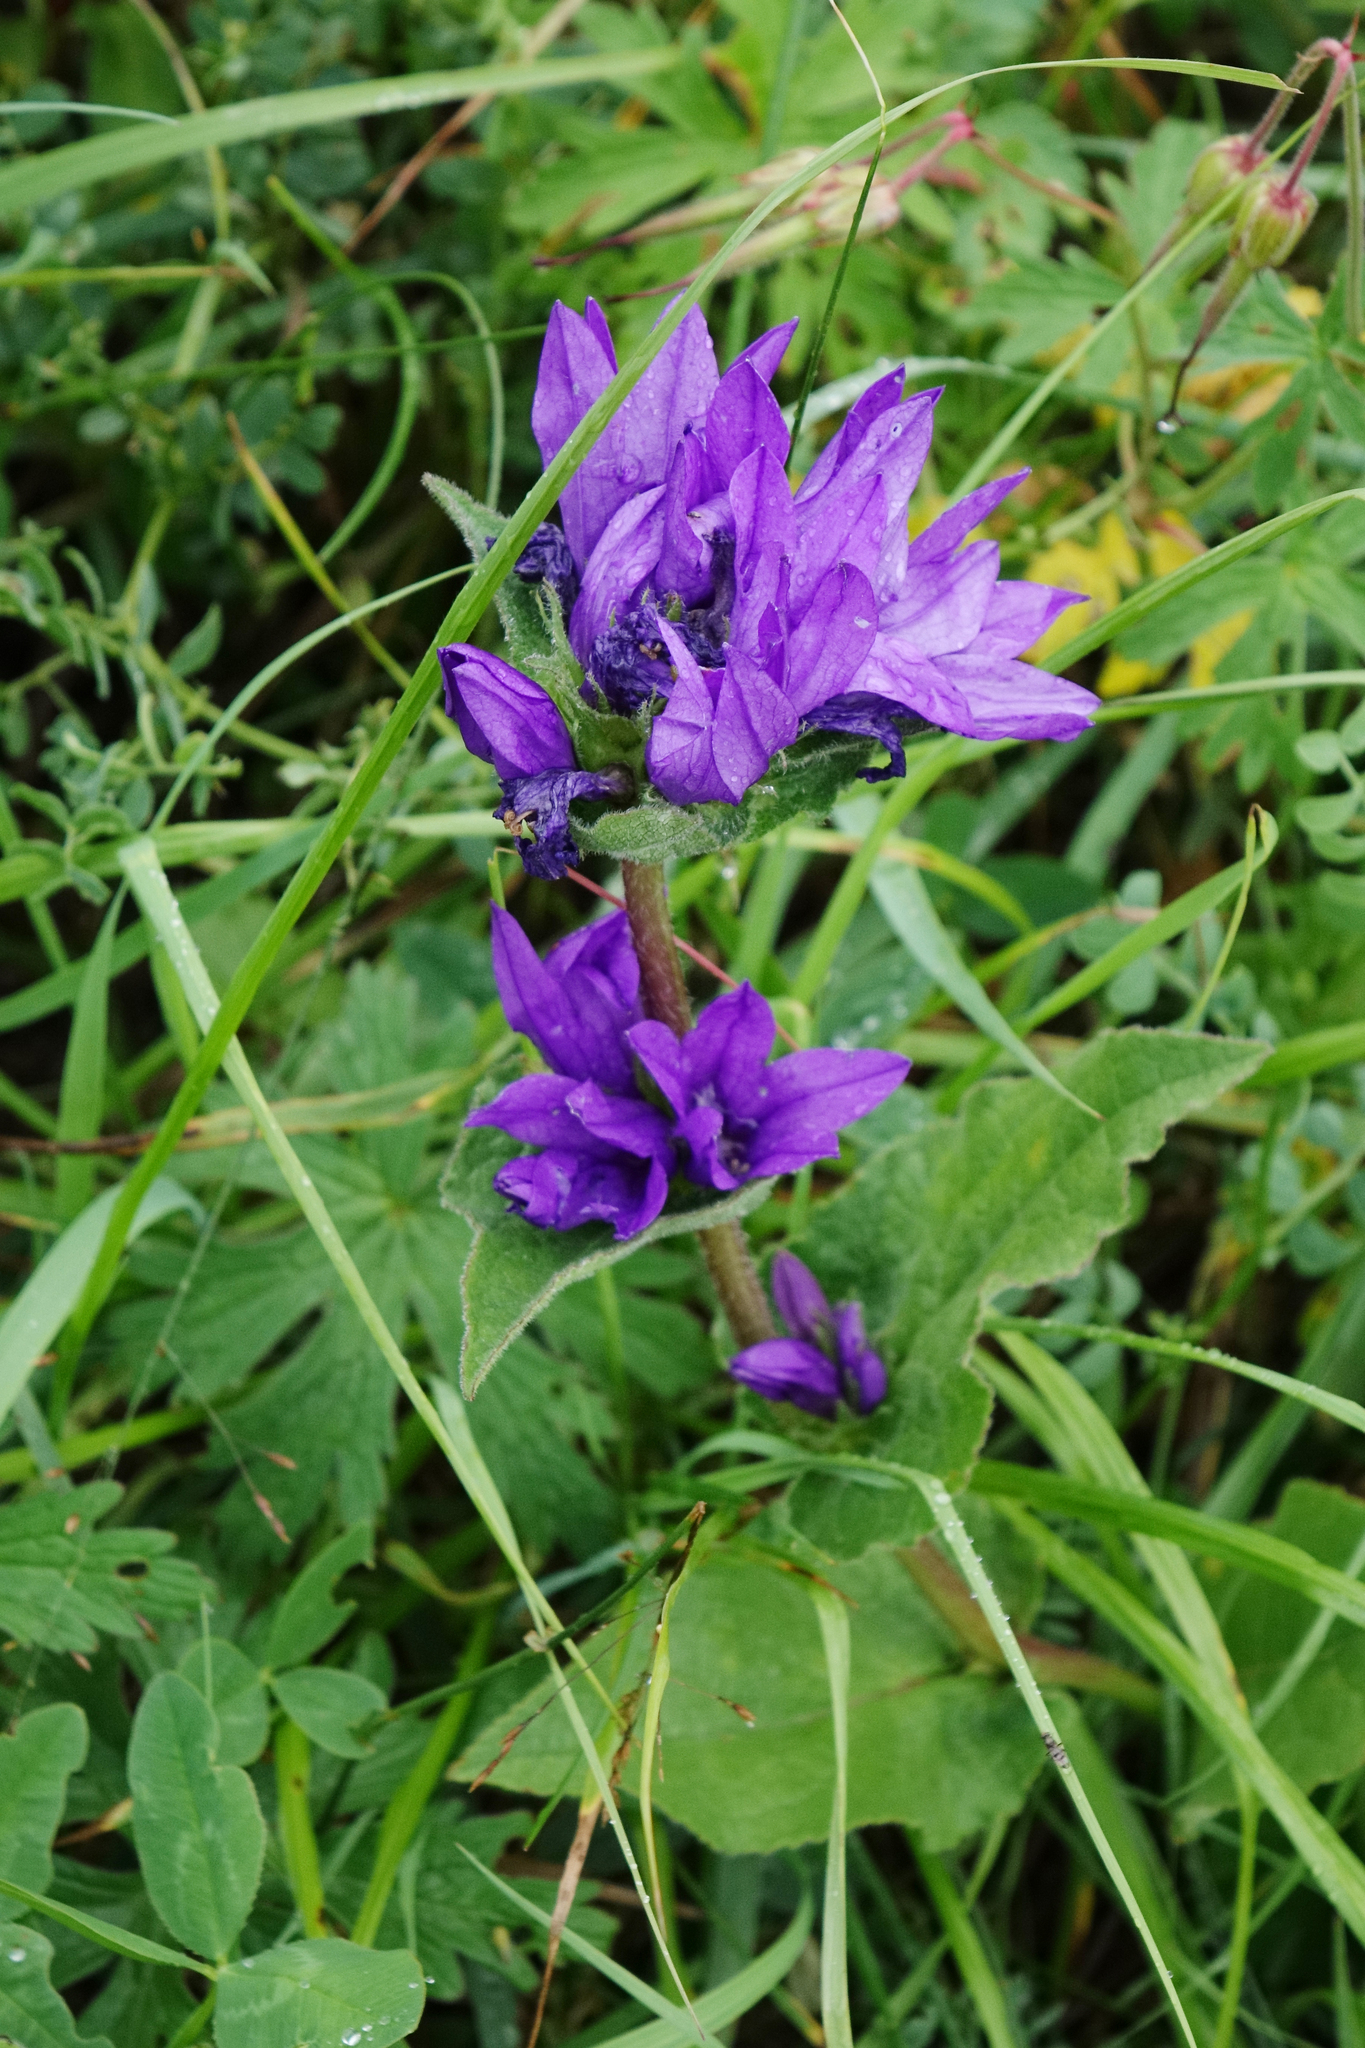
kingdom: Plantae
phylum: Tracheophyta
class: Magnoliopsida
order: Asterales
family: Campanulaceae
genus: Campanula
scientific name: Campanula glomerata
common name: Clustered bellflower
